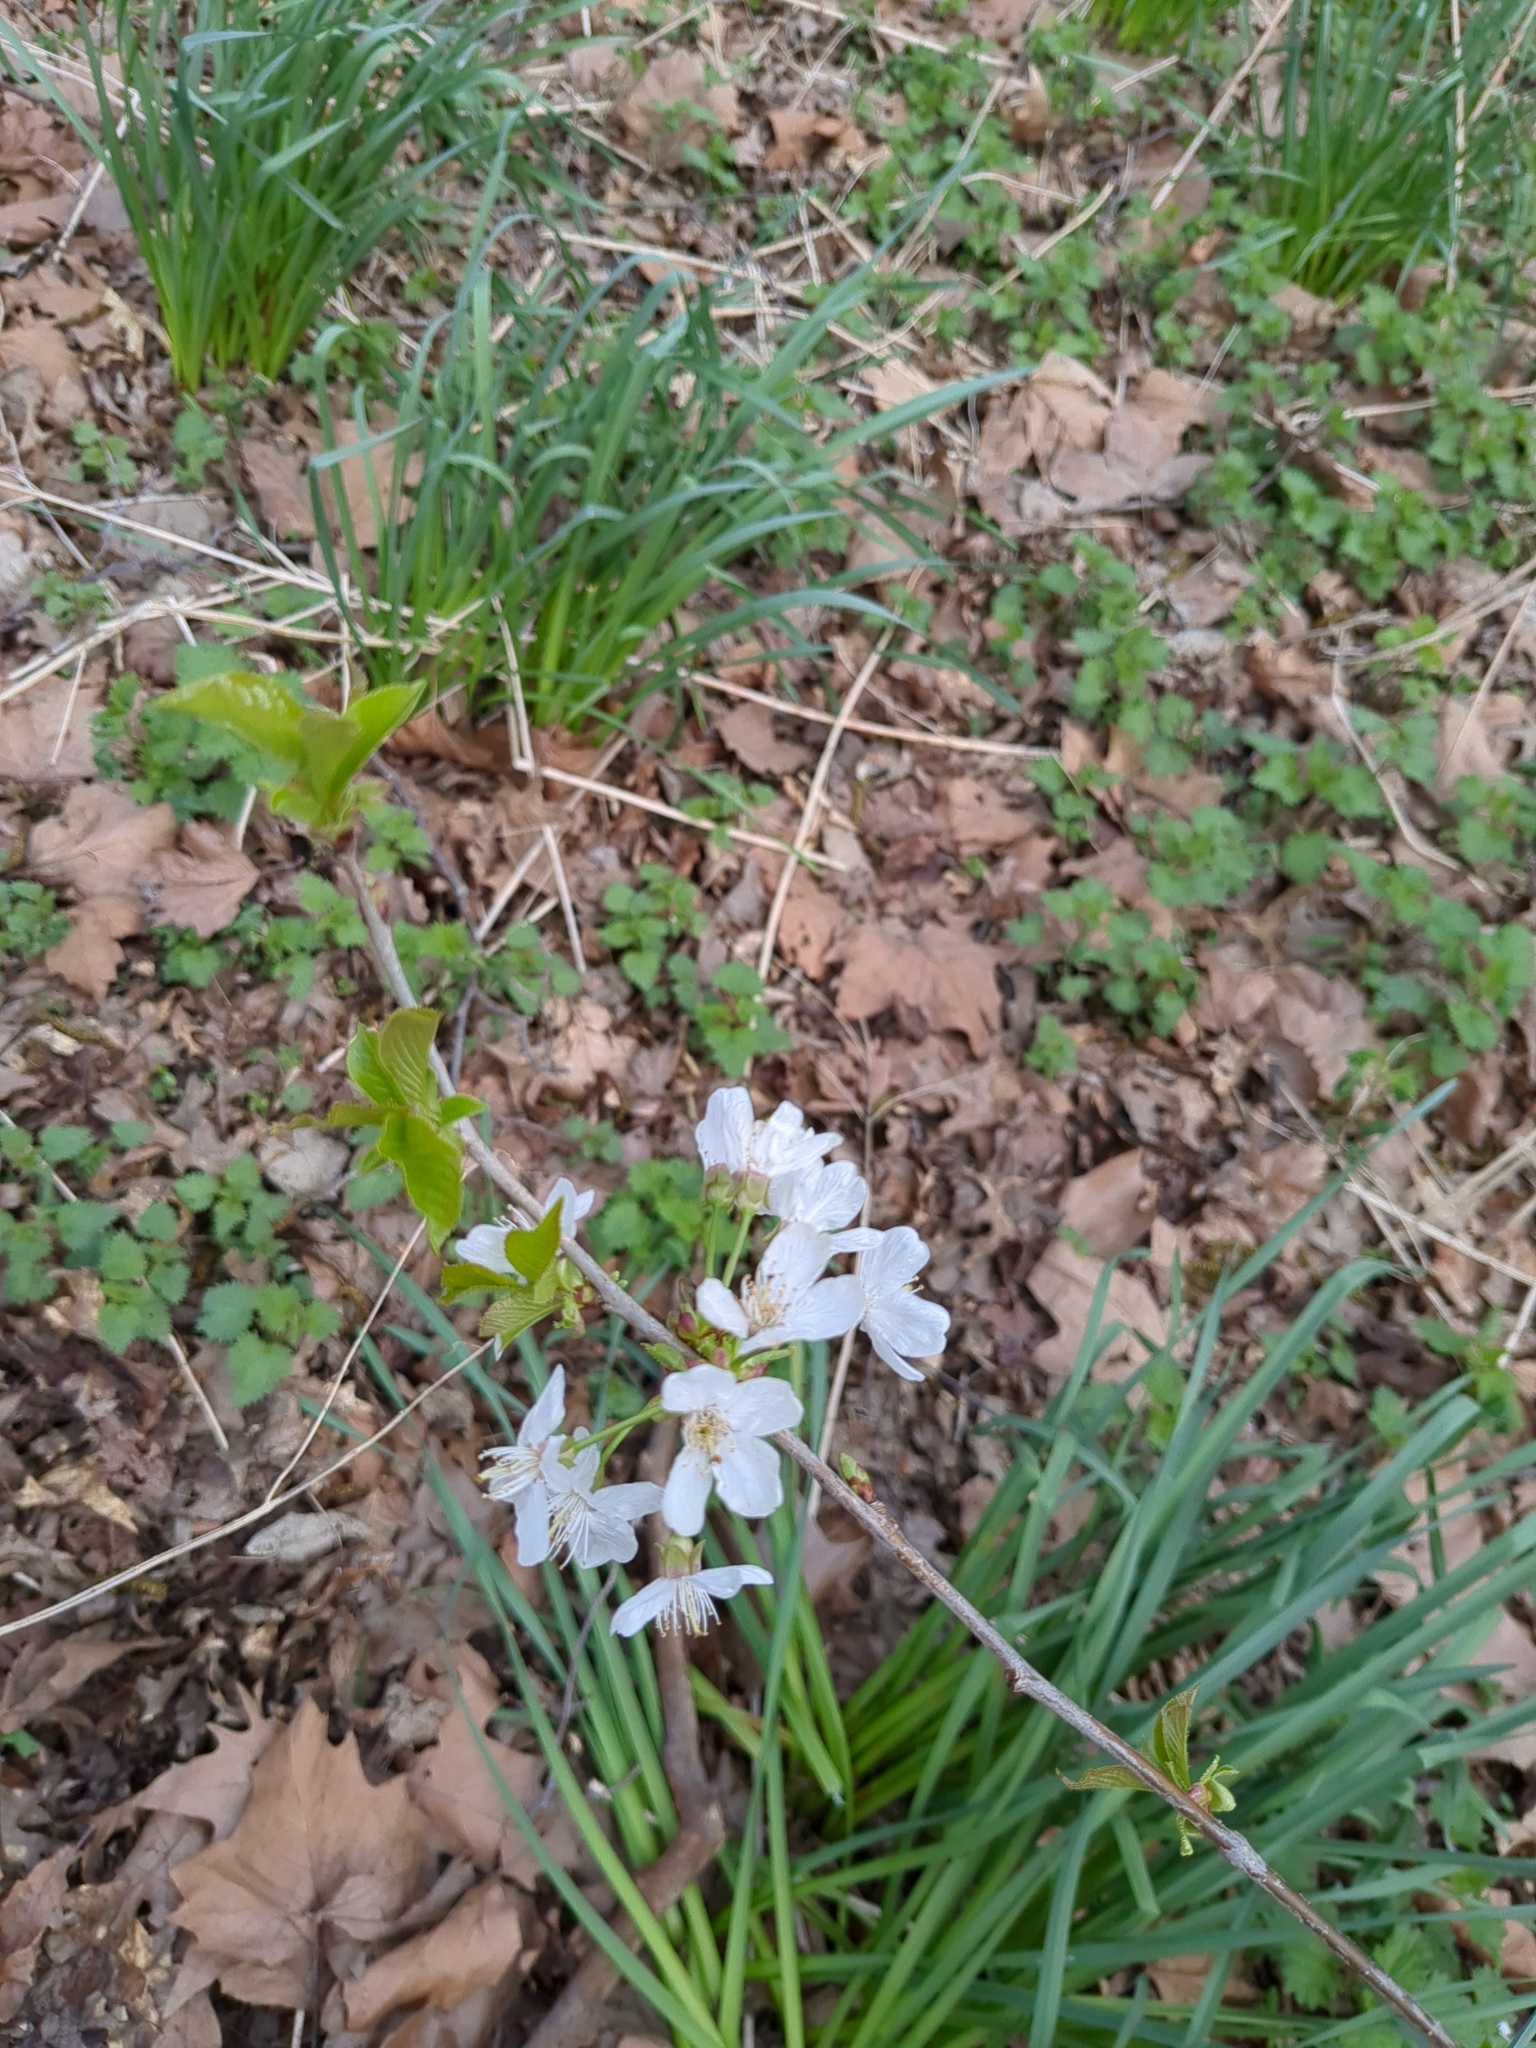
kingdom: Plantae
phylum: Tracheophyta
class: Magnoliopsida
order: Rosales
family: Rosaceae
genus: Prunus
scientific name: Prunus avium
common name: Sweet cherry
